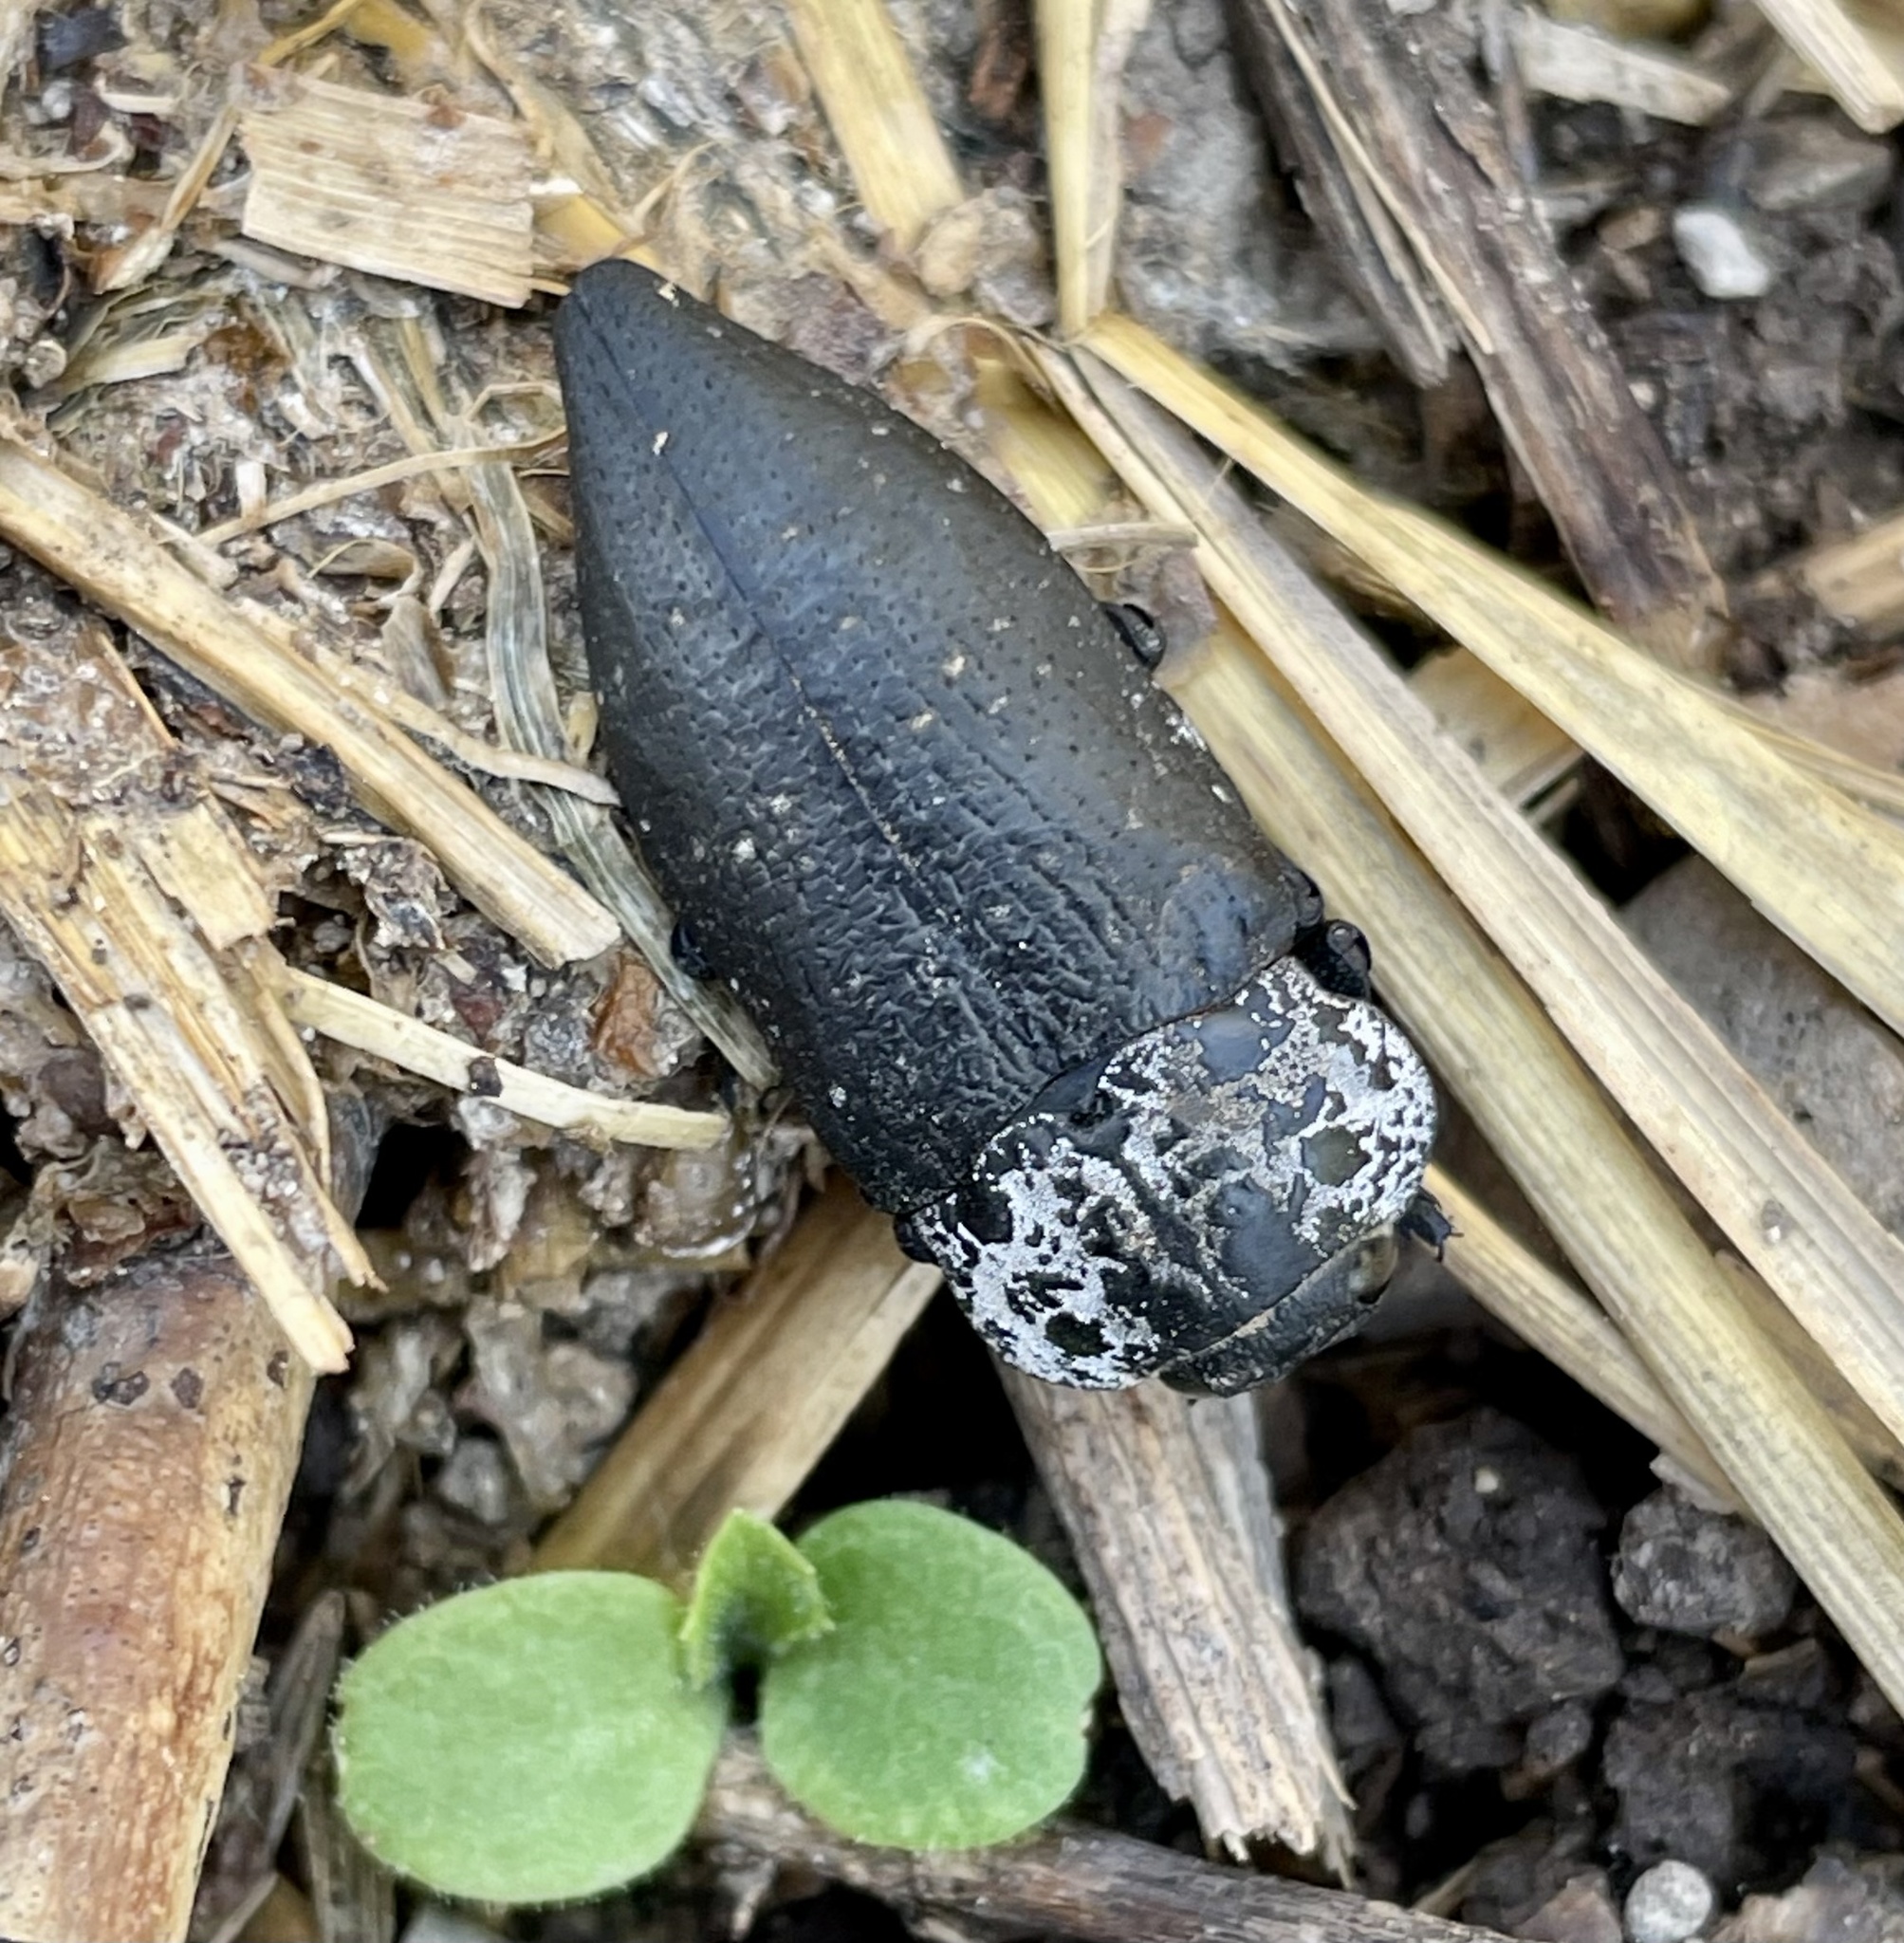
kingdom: Animalia
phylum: Arthropoda
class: Insecta
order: Coleoptera
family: Buprestidae
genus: Capnodis
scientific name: Capnodis tenebrionis
